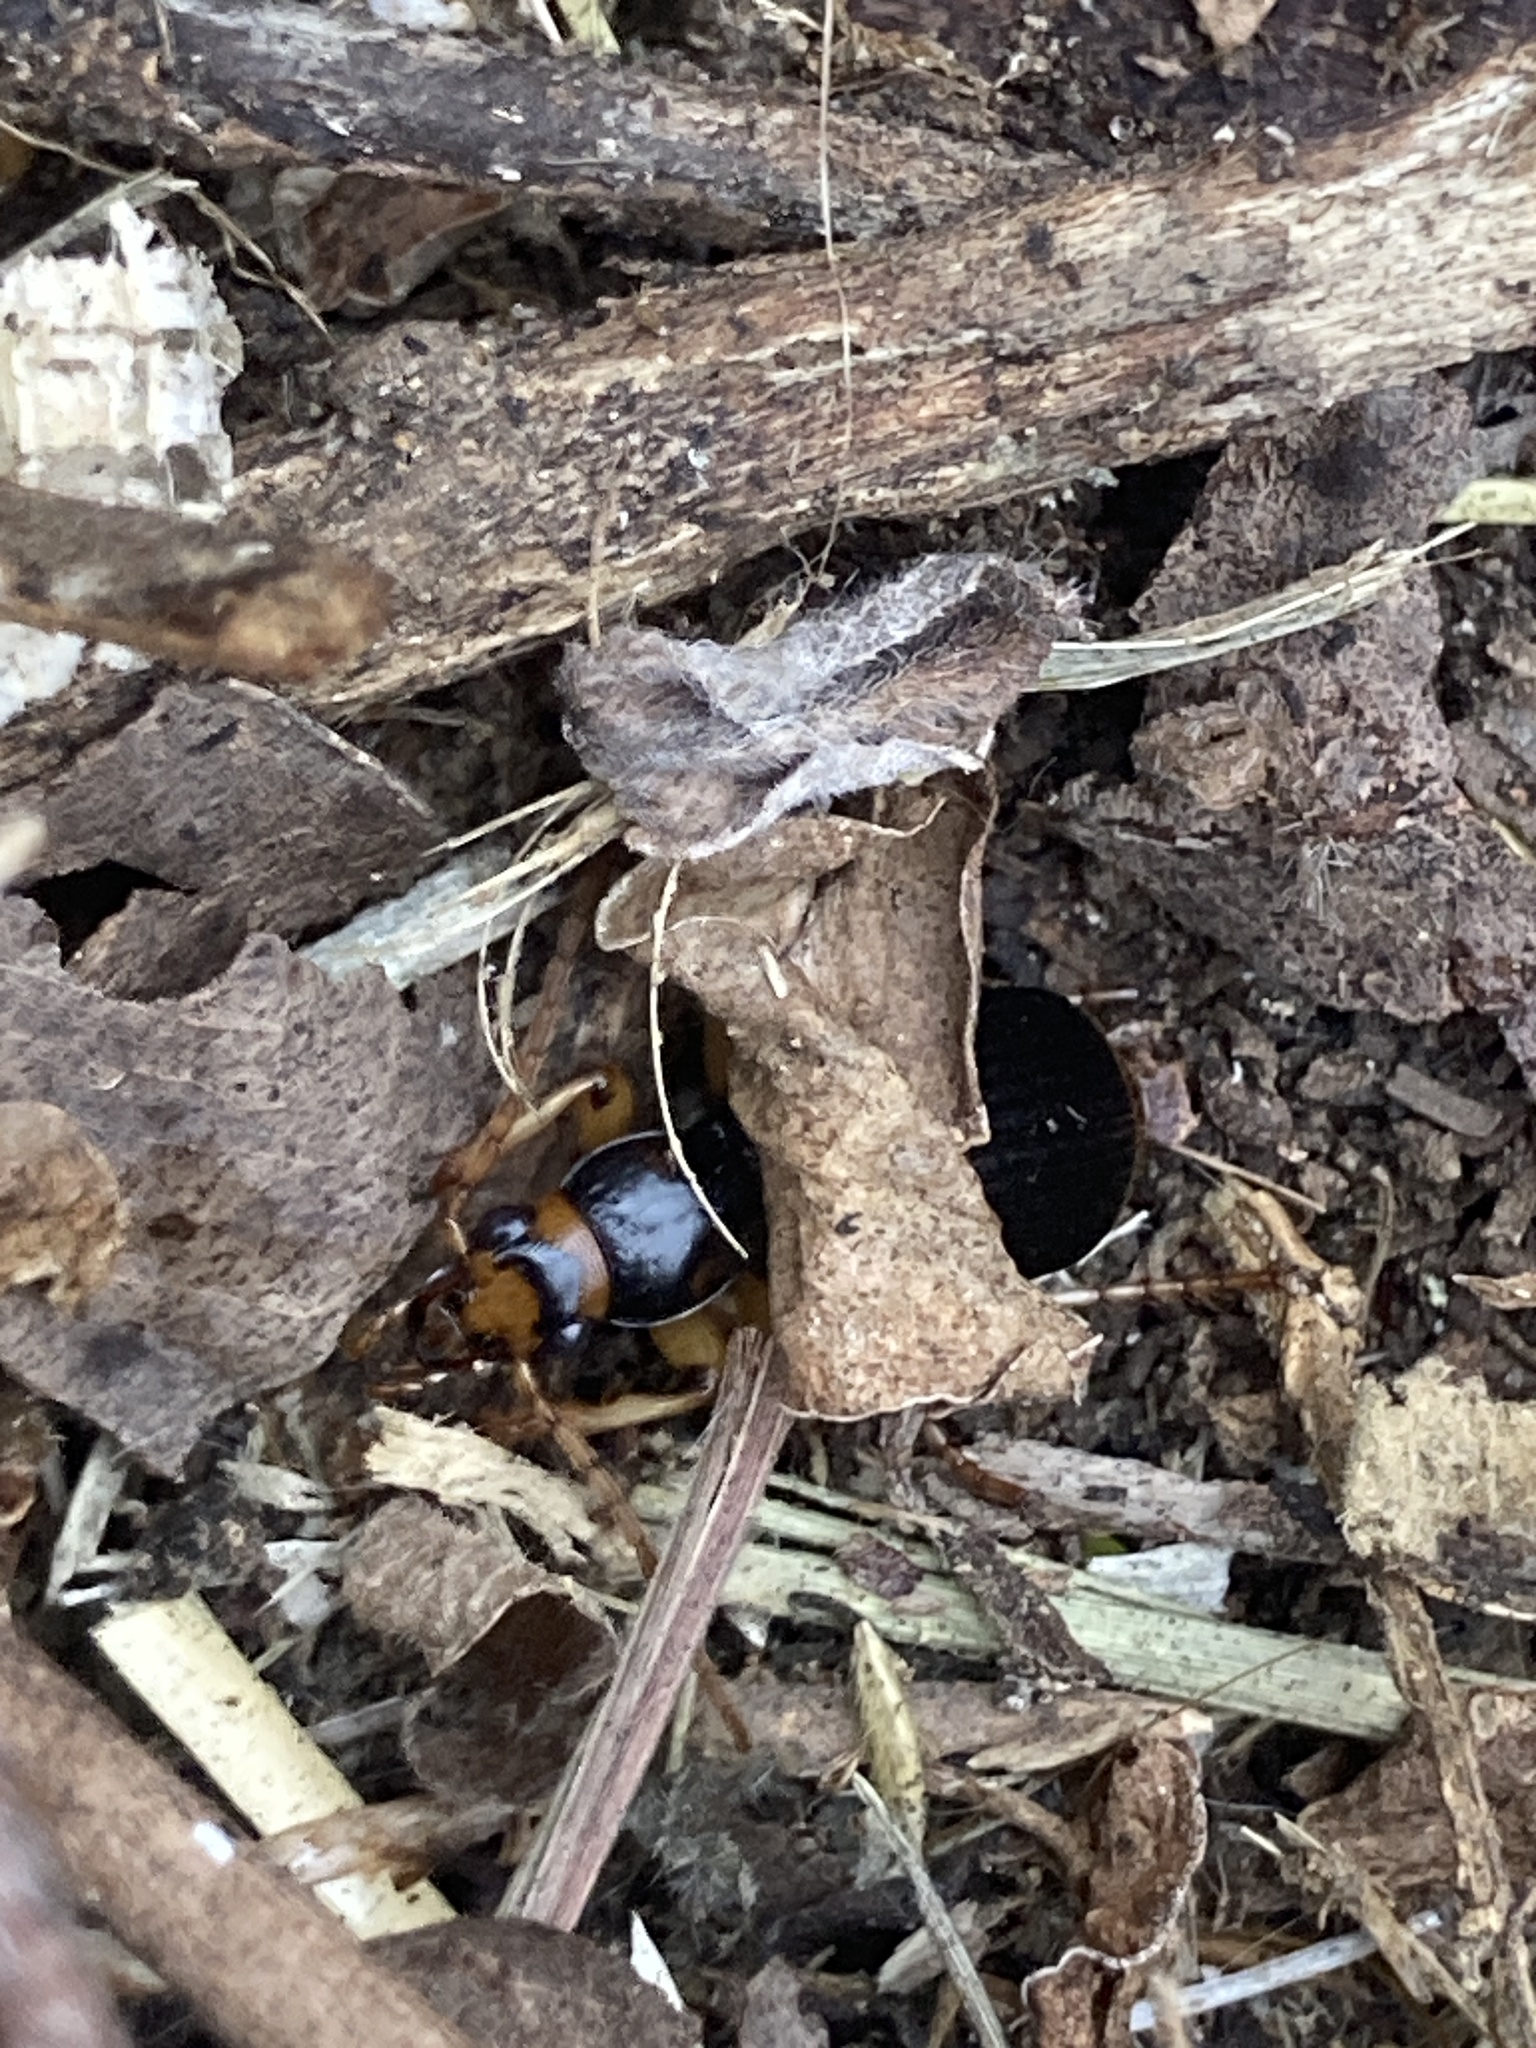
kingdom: Animalia
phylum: Arthropoda
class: Insecta
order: Coleoptera
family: Carabidae
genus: Pheropsophus
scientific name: Pheropsophus verticalis
